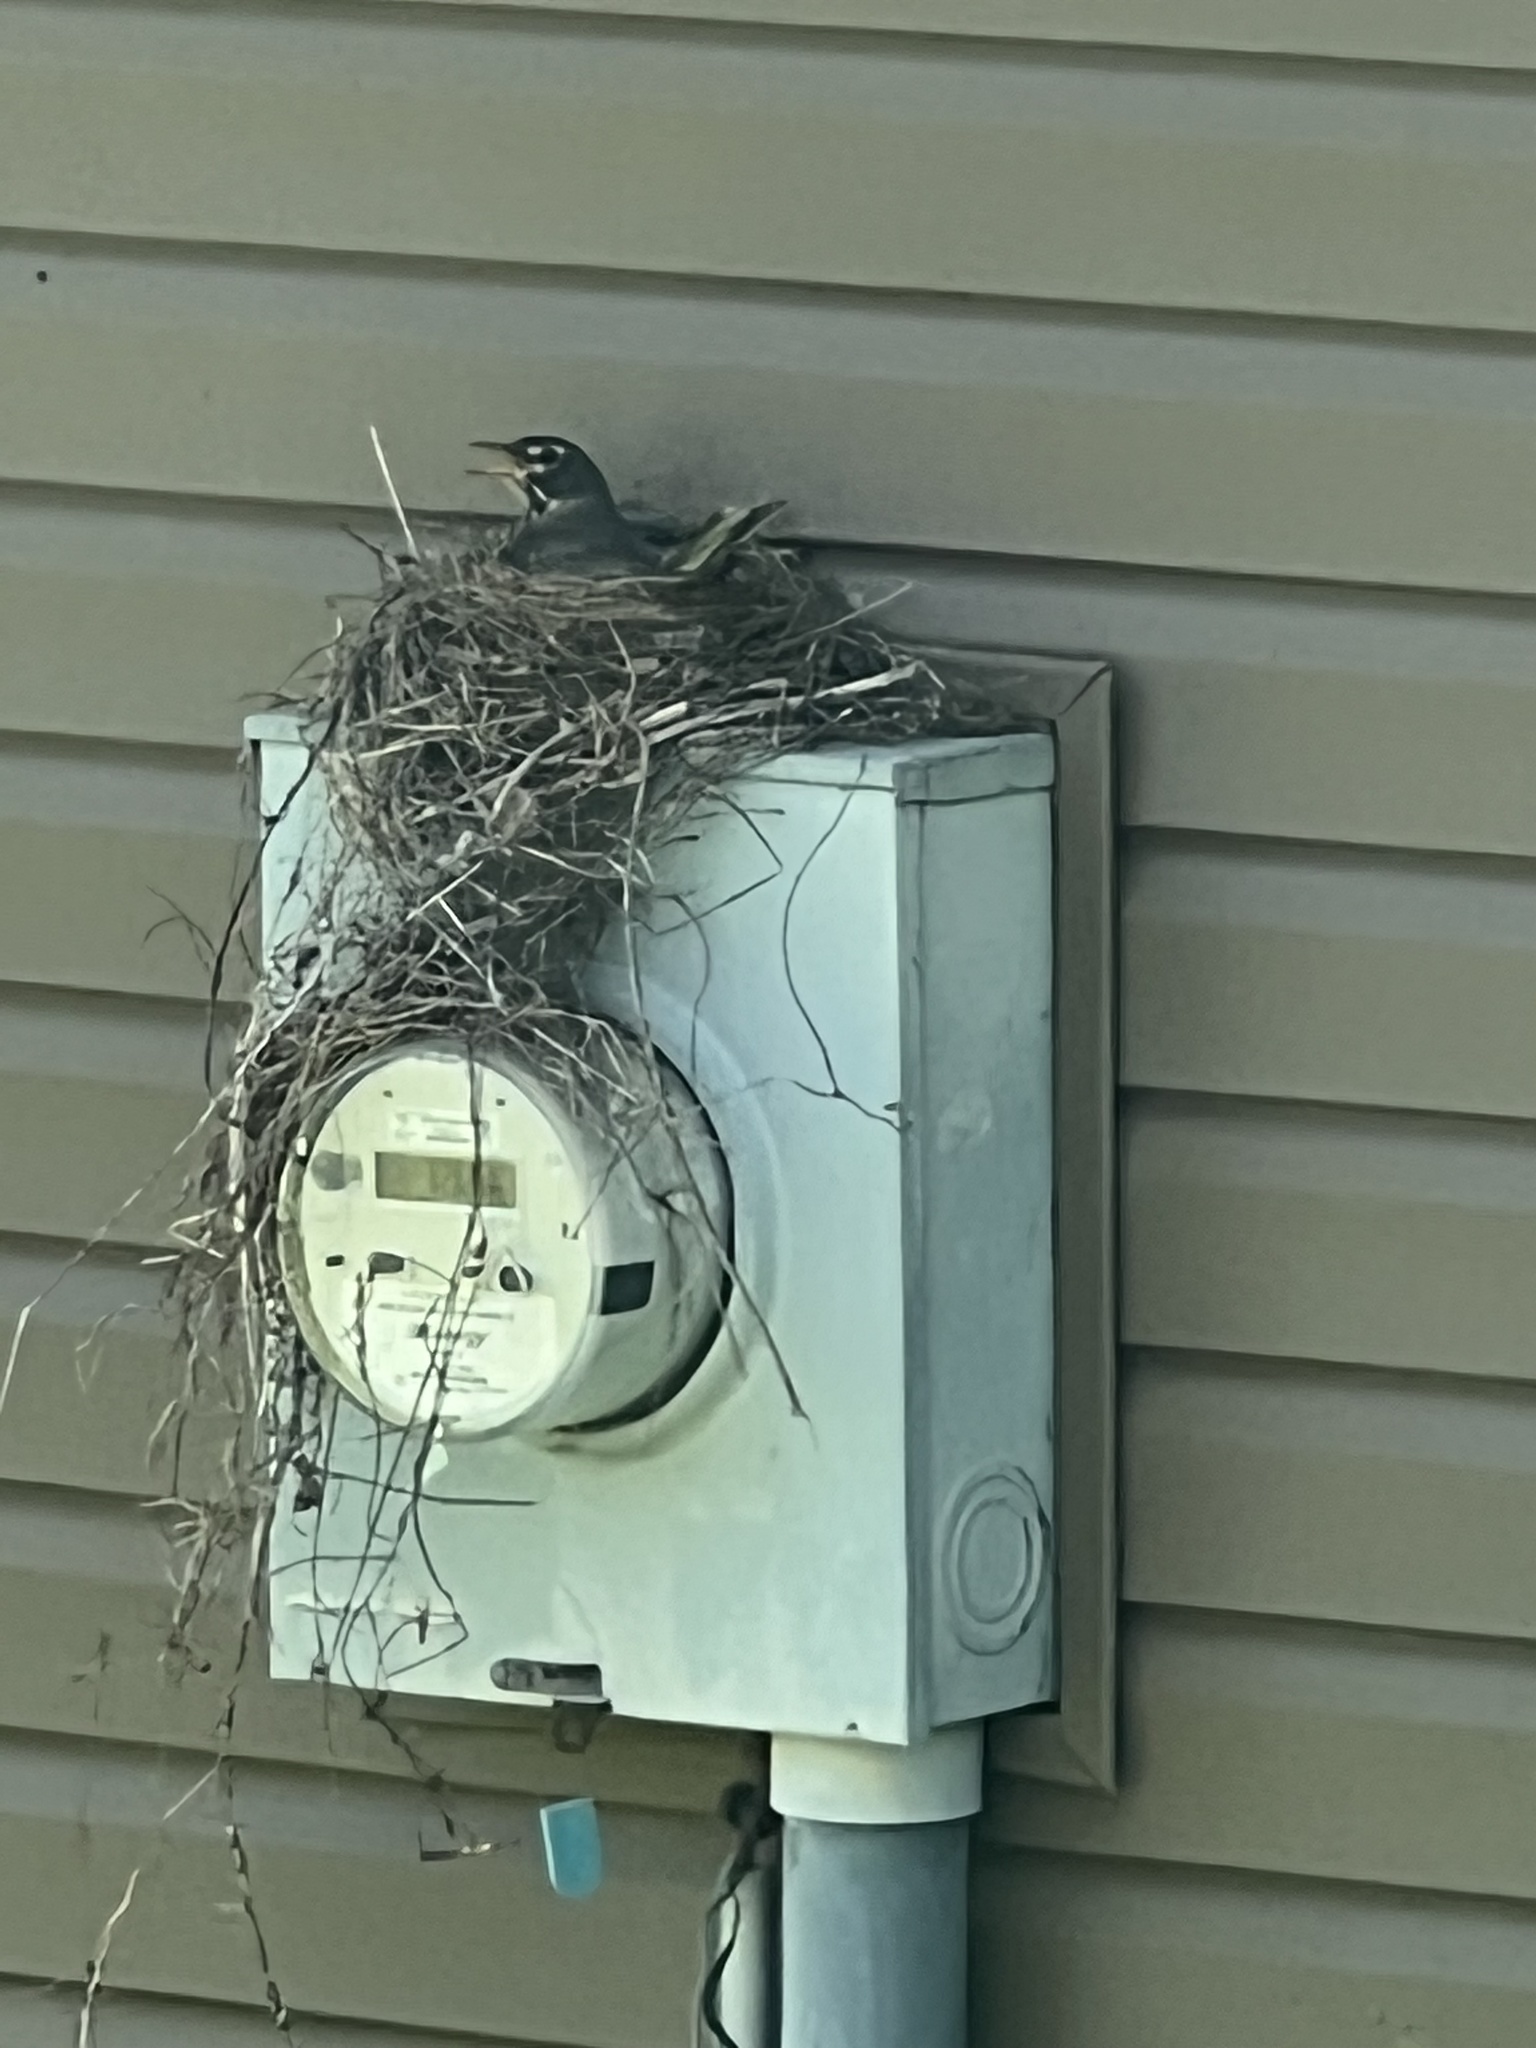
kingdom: Animalia
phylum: Chordata
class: Aves
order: Passeriformes
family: Turdidae
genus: Turdus
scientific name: Turdus migratorius
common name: American robin
